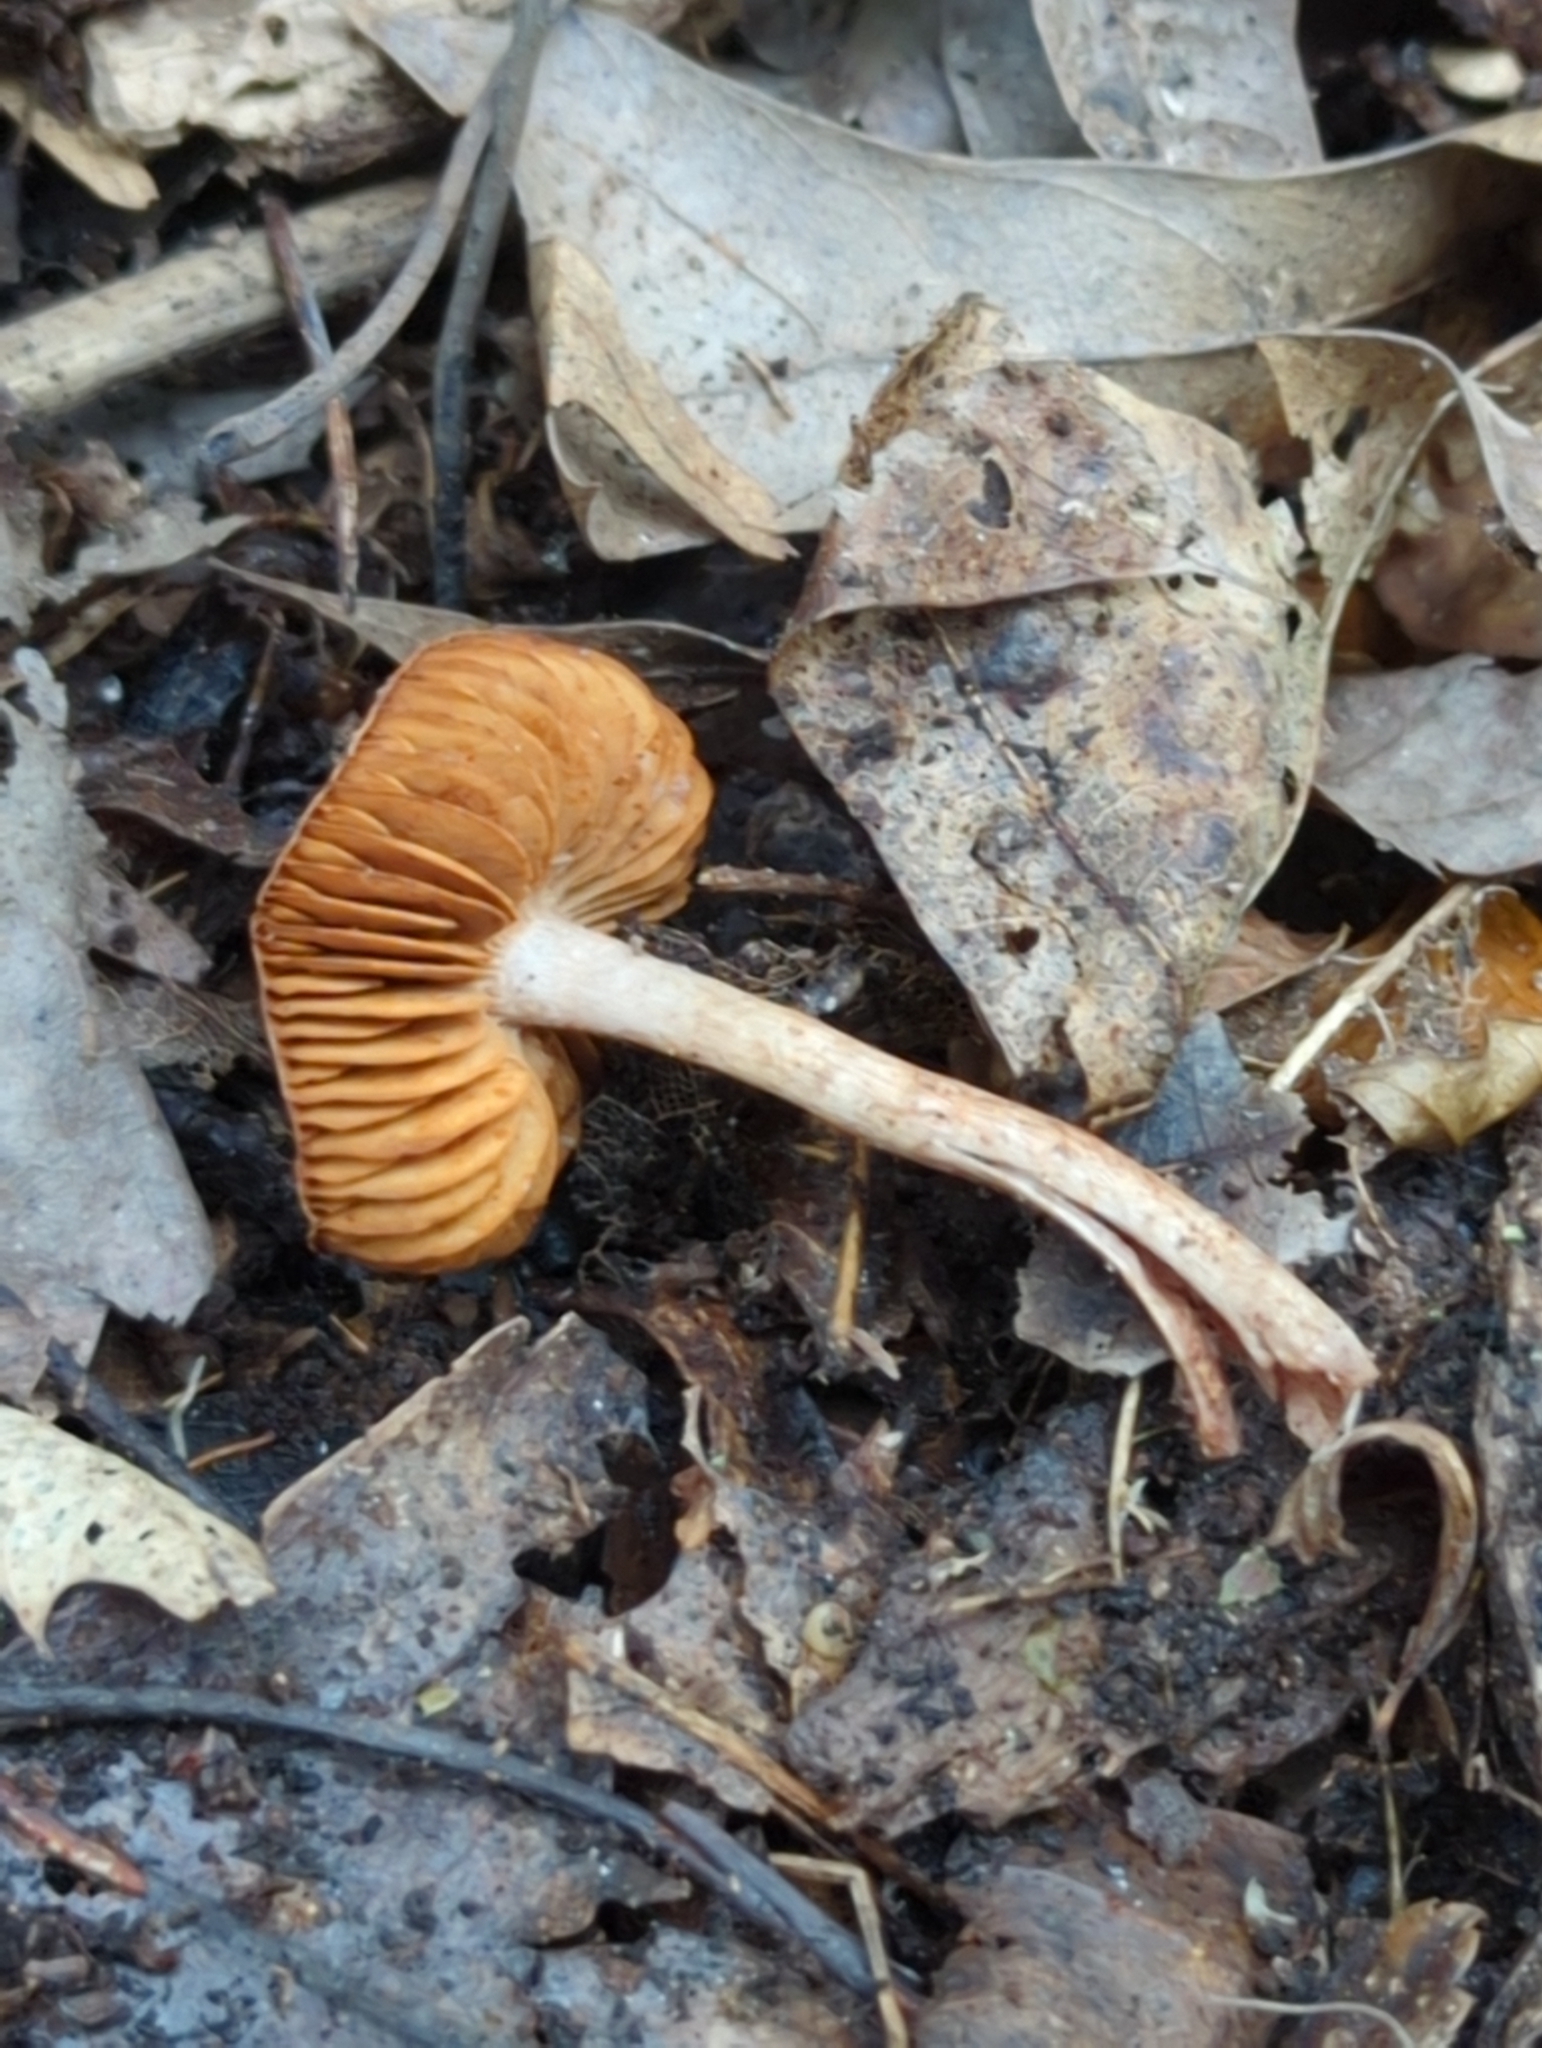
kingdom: Fungi
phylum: Basidiomycota
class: Agaricomycetes
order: Agaricales
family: Cortinariaceae
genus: Cortinarius
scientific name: Cortinarius perviolaceus
